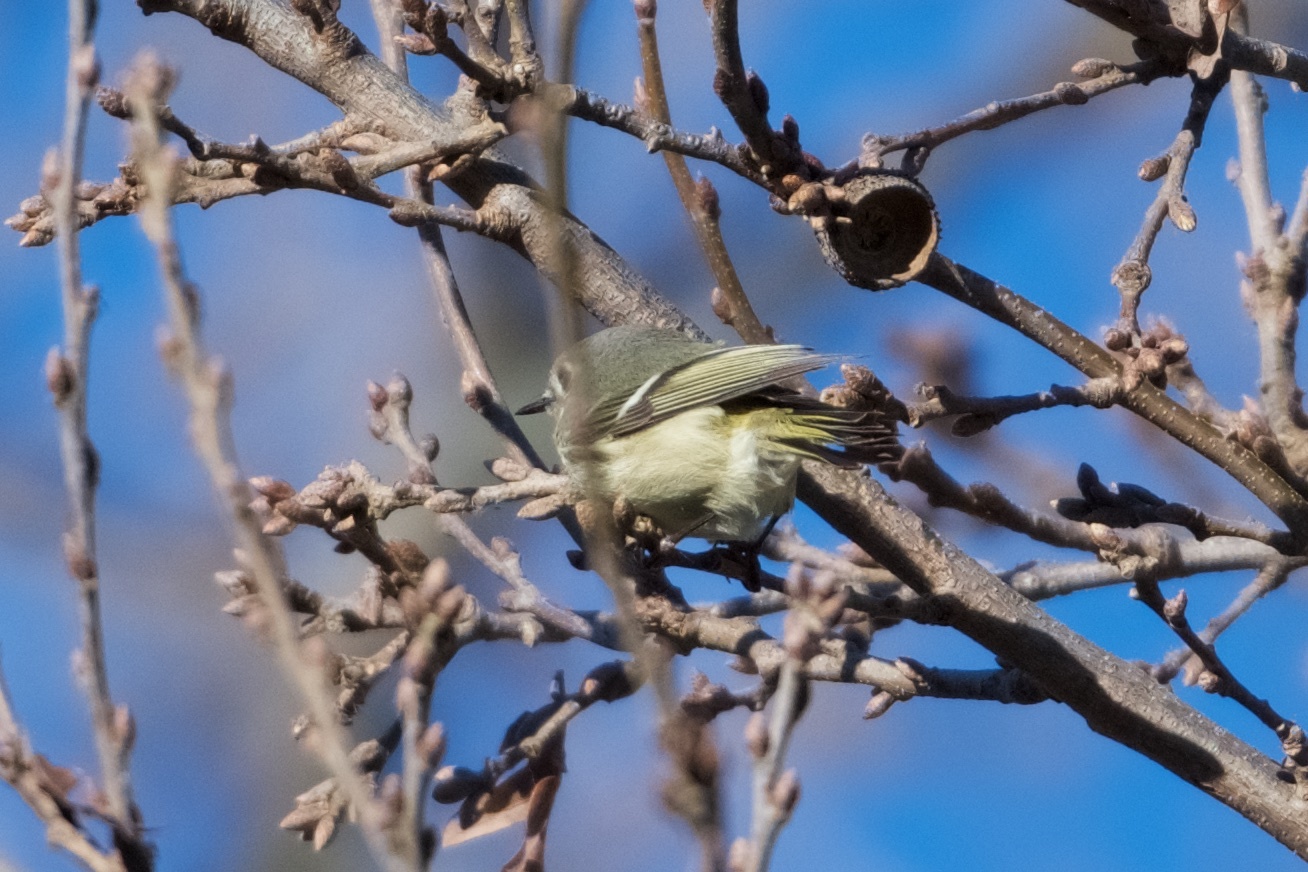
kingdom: Animalia
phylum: Chordata
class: Aves
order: Passeriformes
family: Regulidae
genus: Regulus
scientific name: Regulus calendula
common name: Ruby-crowned kinglet
